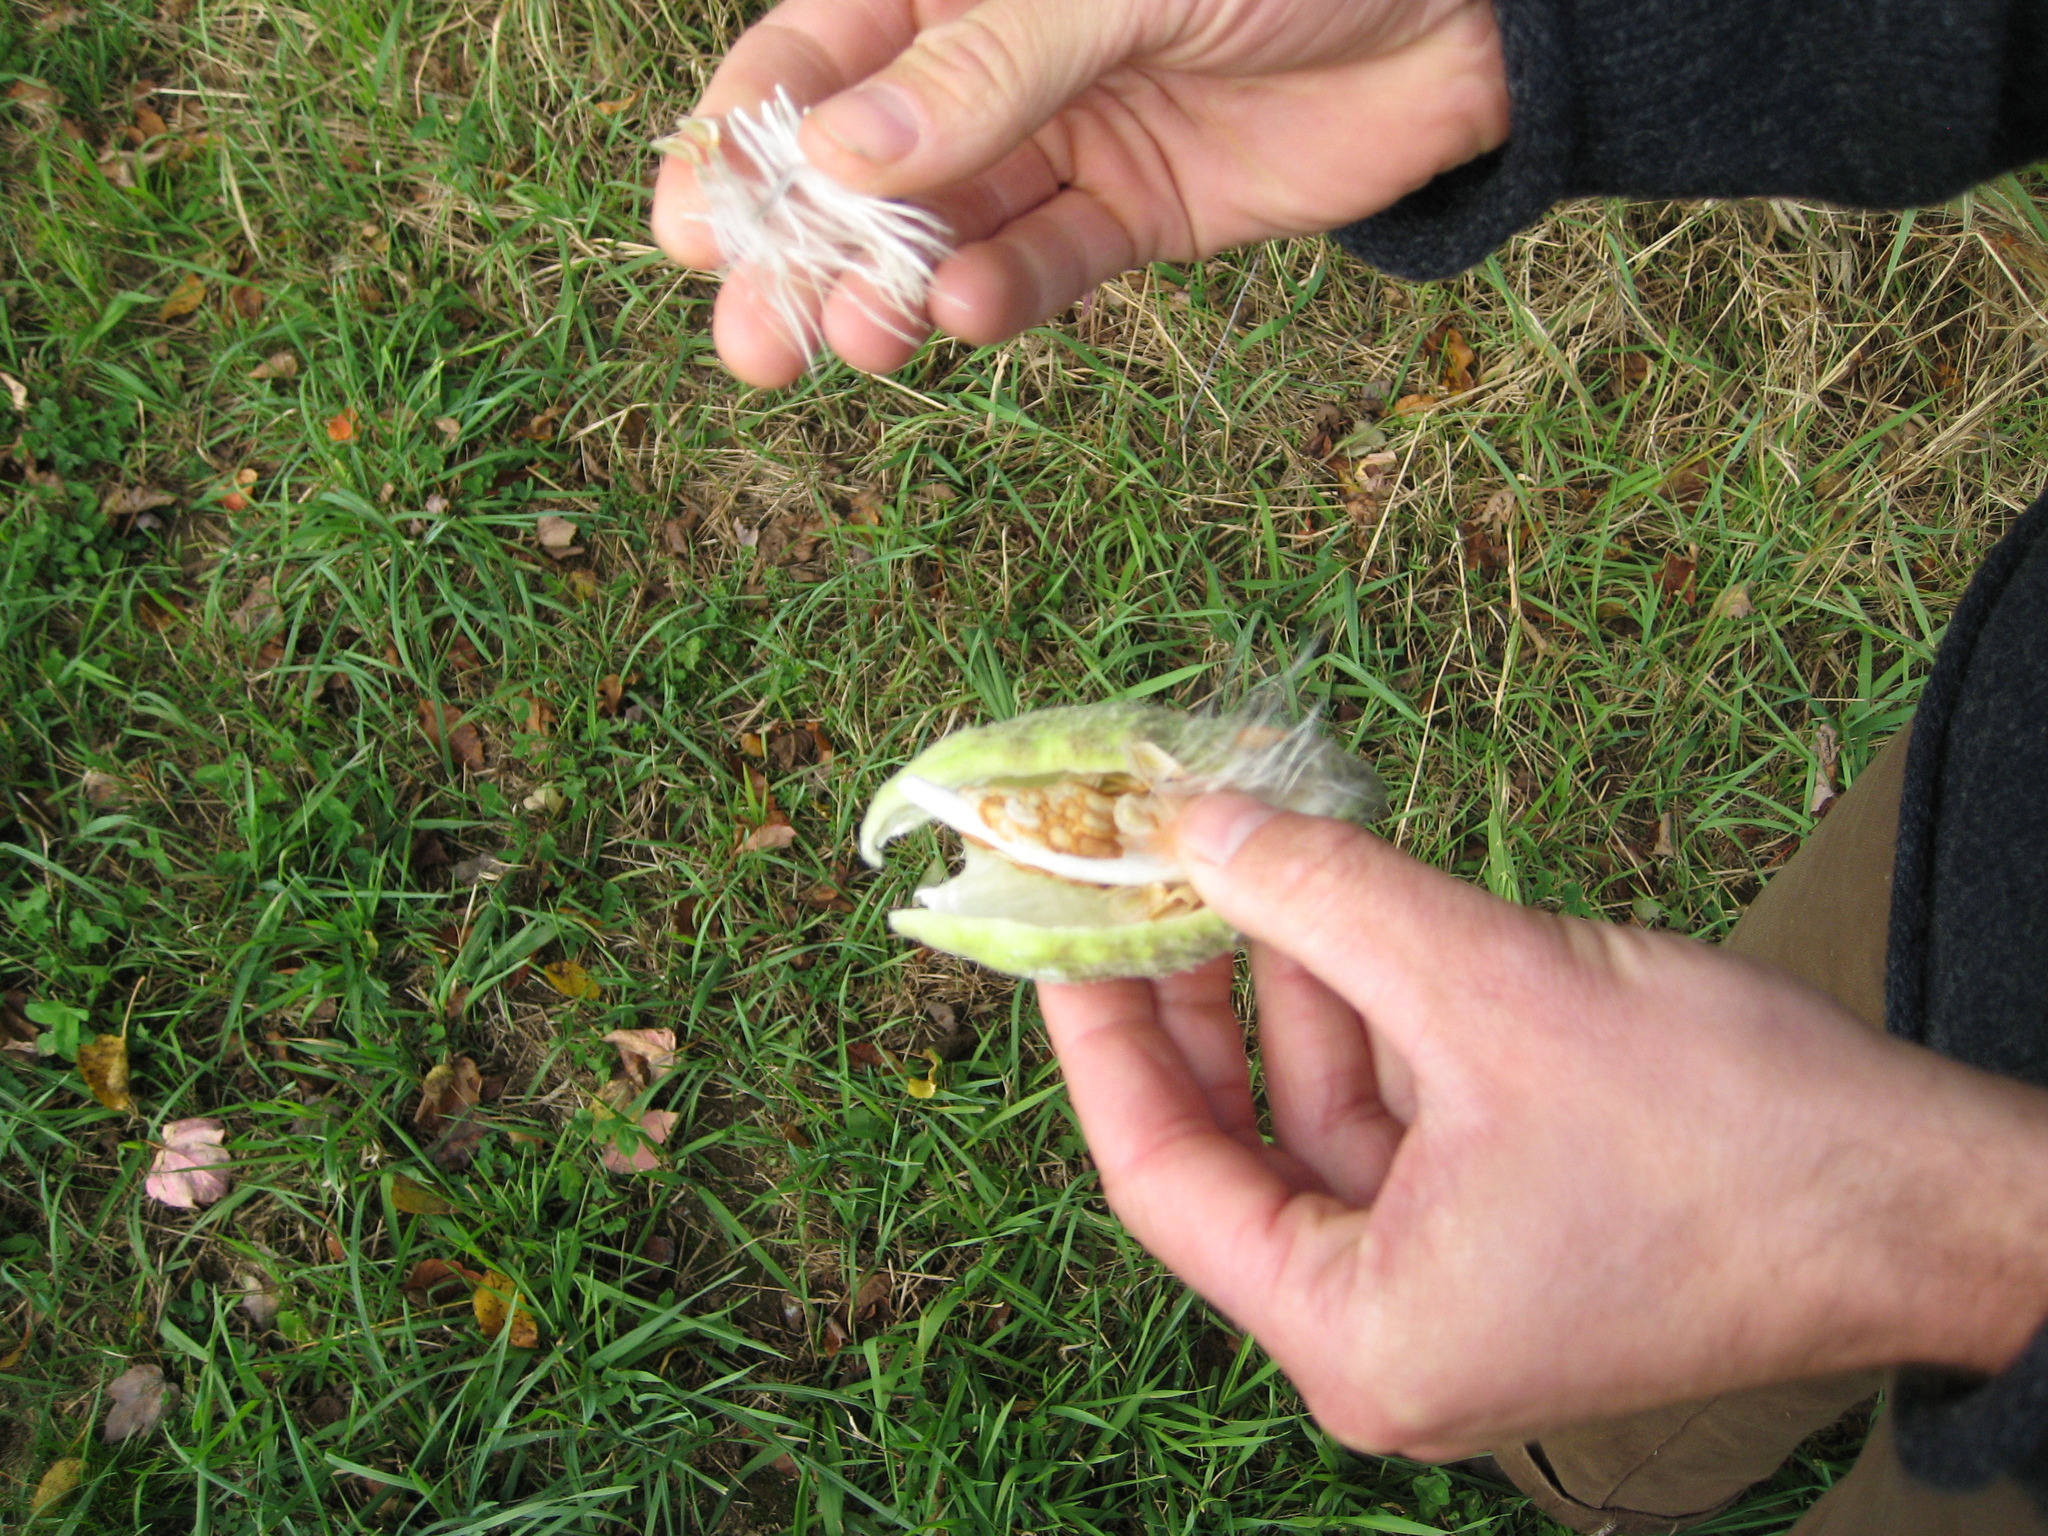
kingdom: Plantae
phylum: Tracheophyta
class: Magnoliopsida
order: Gentianales
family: Apocynaceae
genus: Asclepias
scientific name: Asclepias syriaca
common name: Common milkweed
